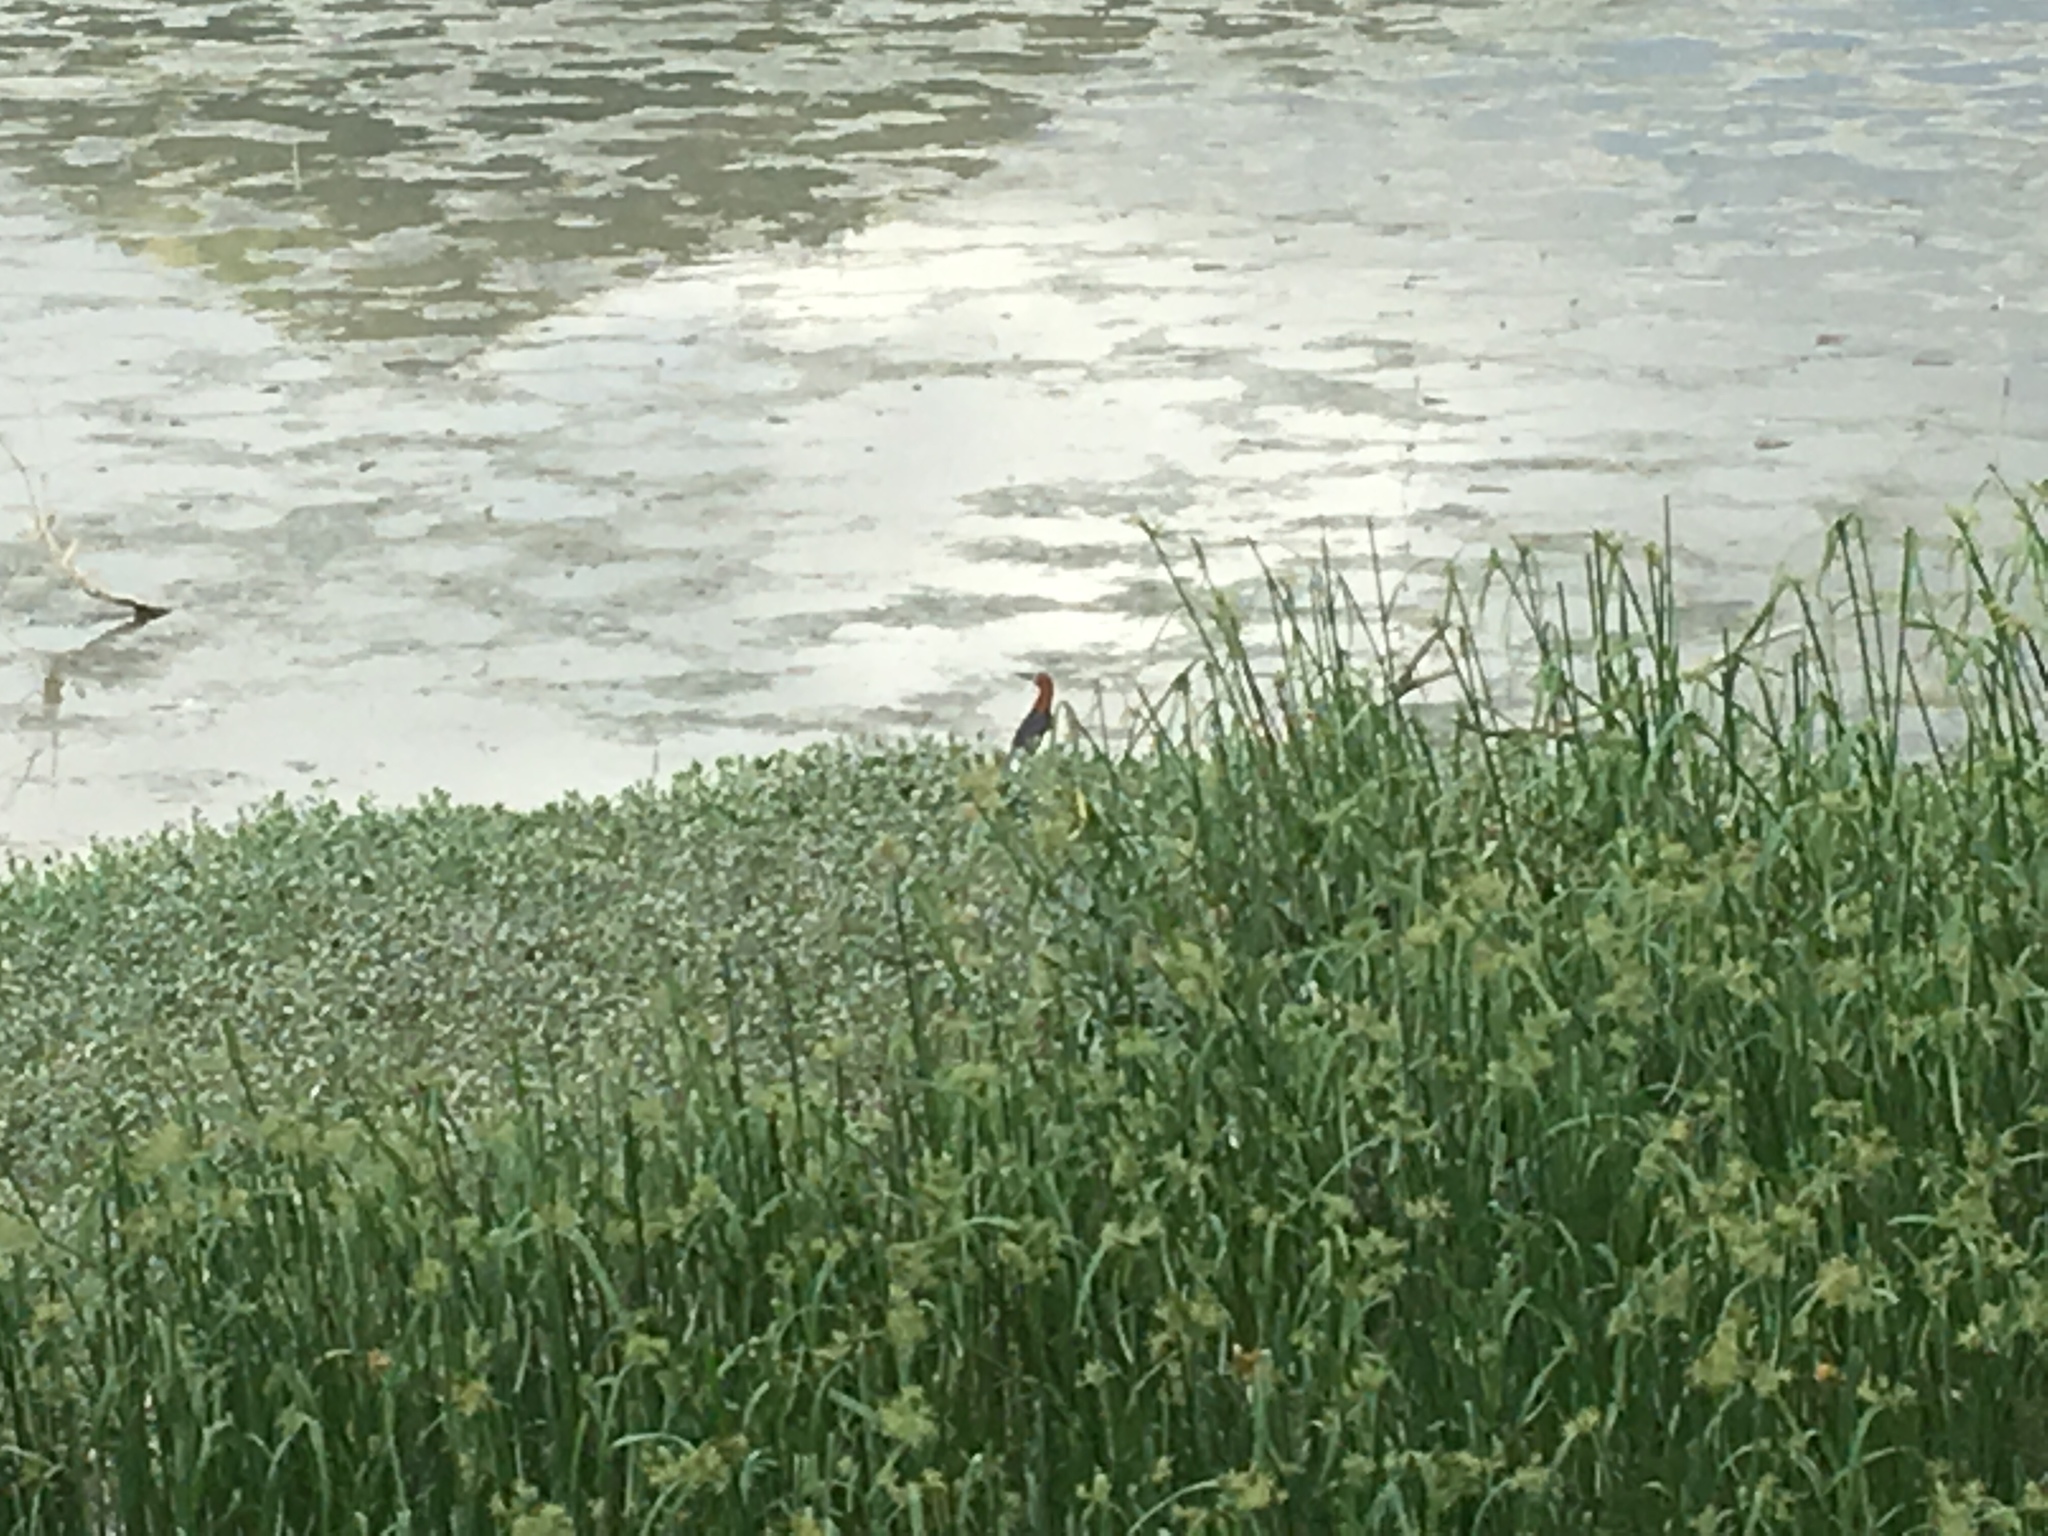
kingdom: Animalia
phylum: Chordata
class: Aves
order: Pelecaniformes
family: Ardeidae
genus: Ardeola
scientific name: Ardeola bacchus
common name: Chinese pond heron
